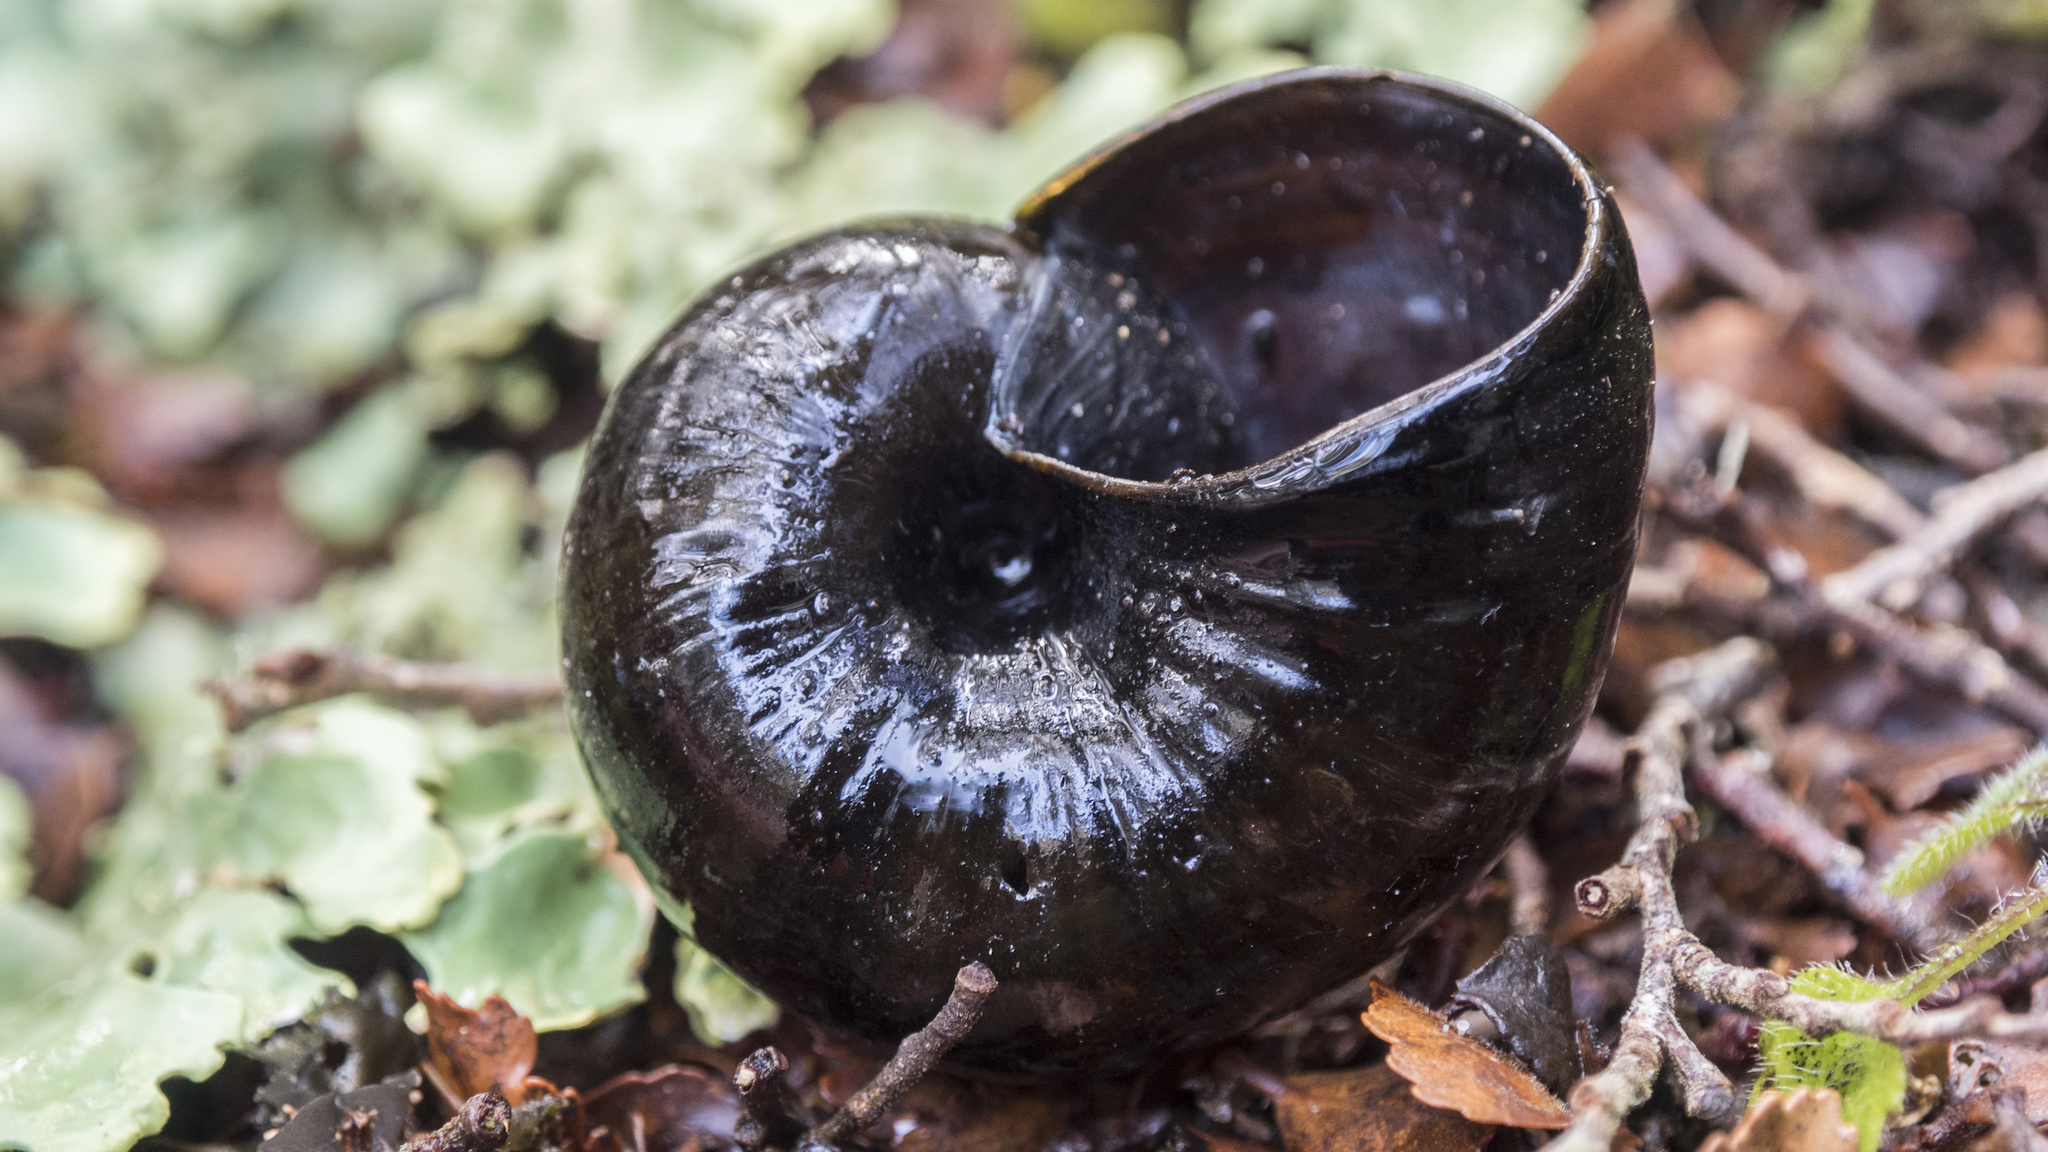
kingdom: Animalia
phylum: Mollusca
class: Gastropoda
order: Stylommatophora
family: Rhytididae
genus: Powelliphanta
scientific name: Powelliphanta spedeni
